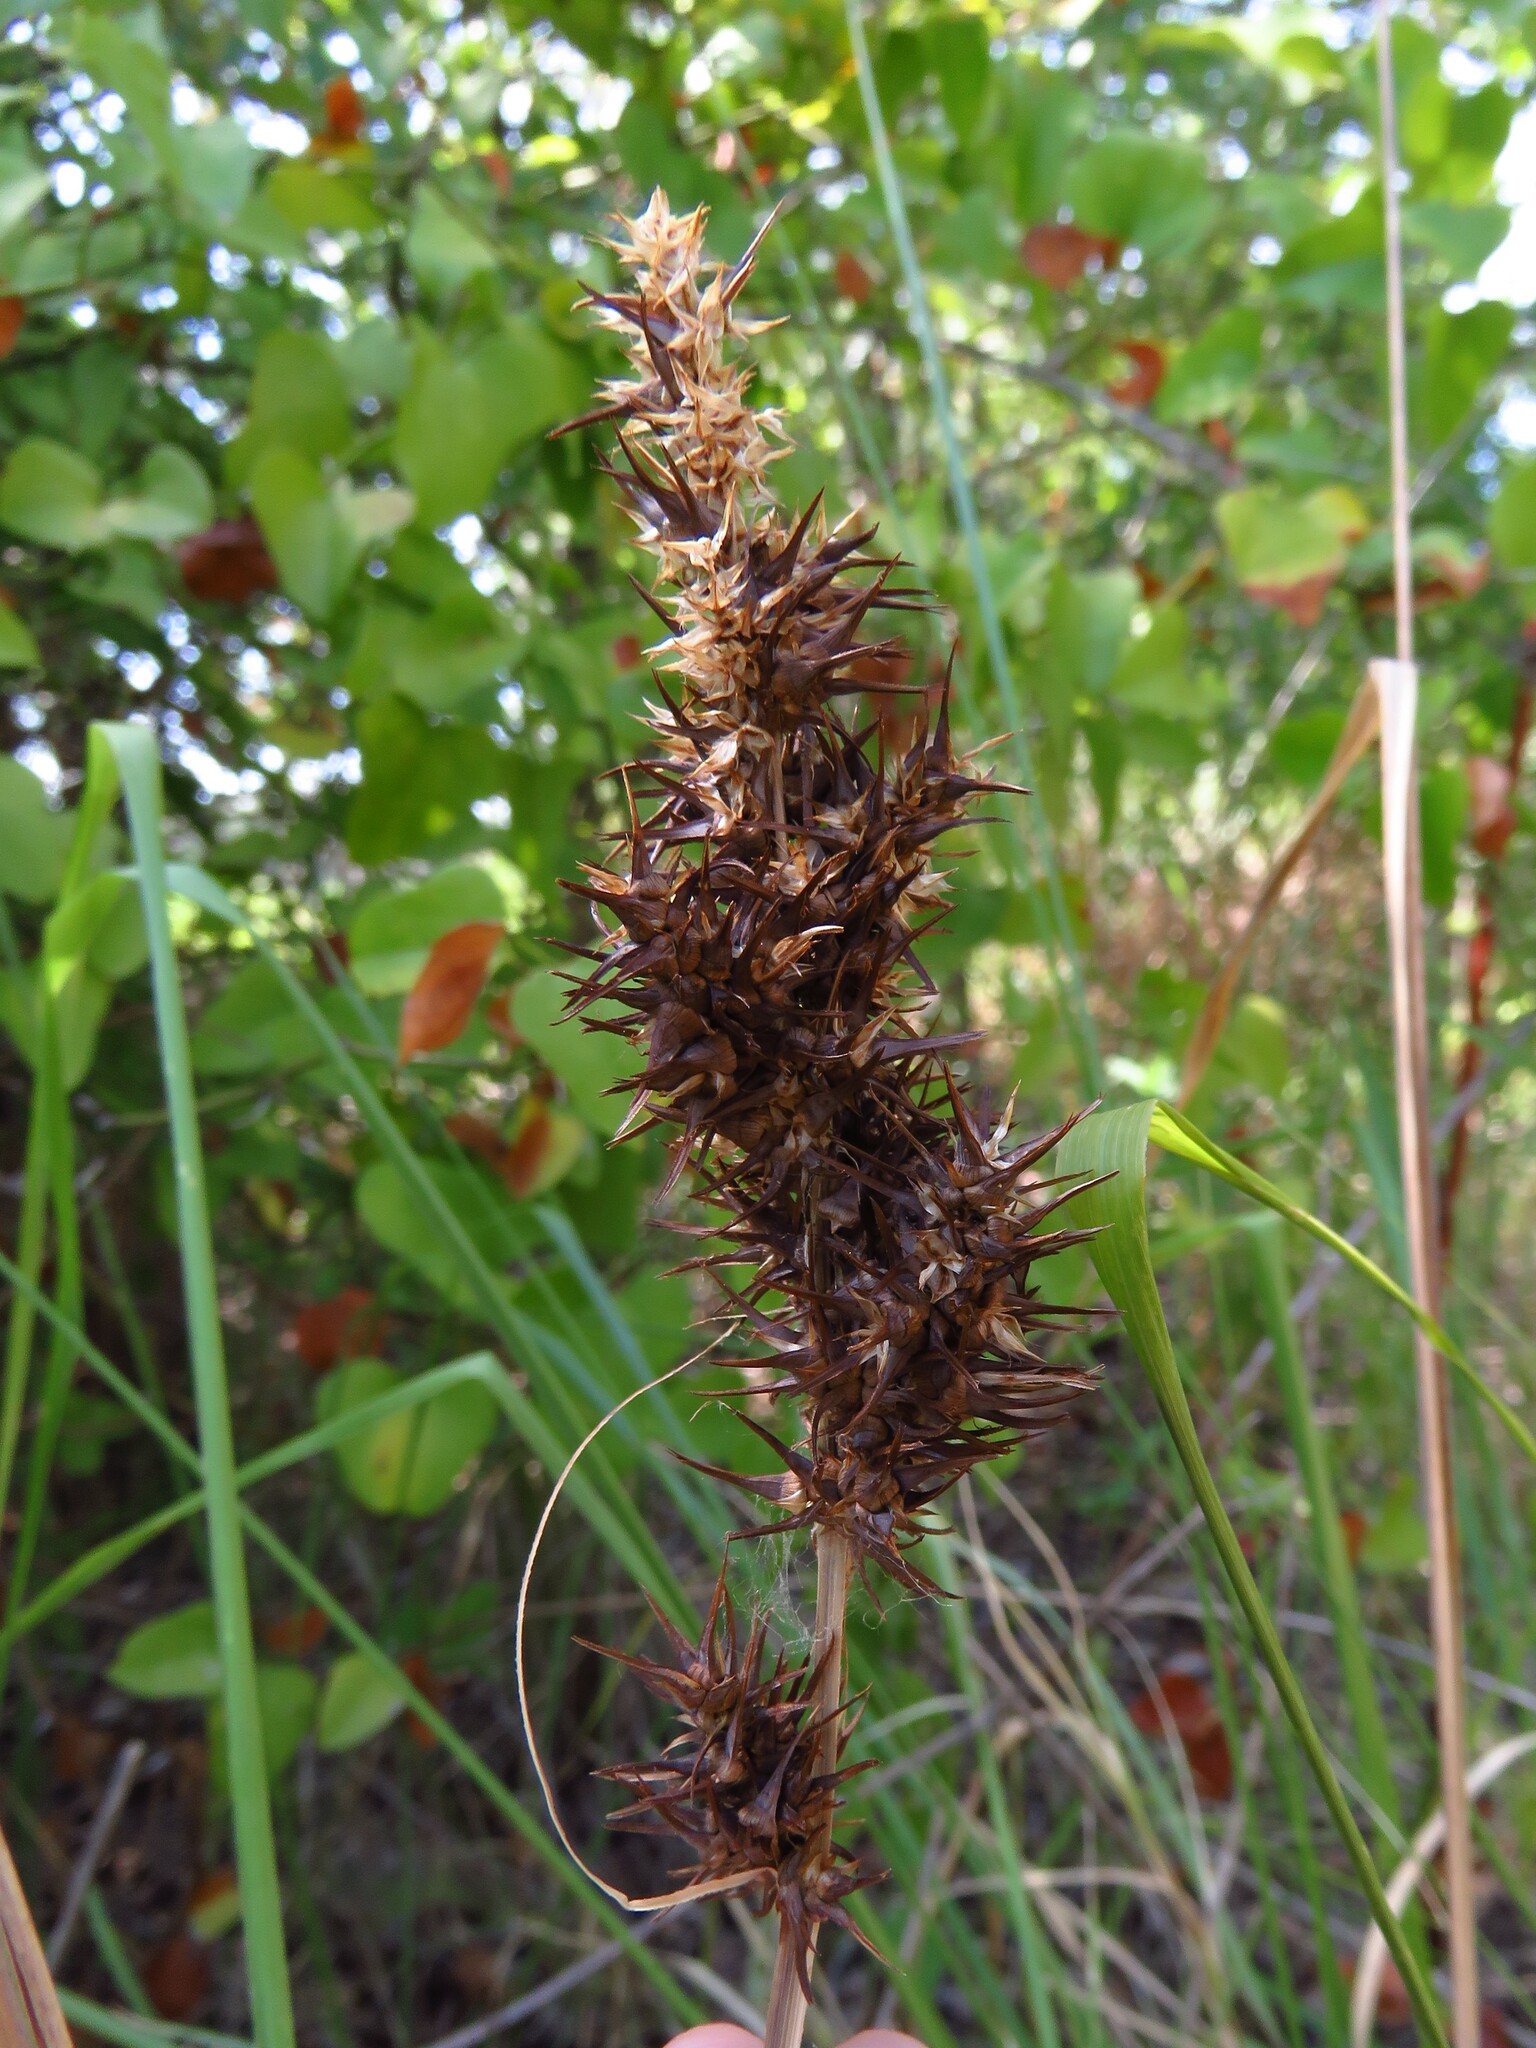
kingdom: Plantae
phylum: Tracheophyta
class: Liliopsida
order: Poales
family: Cyperaceae
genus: Carex
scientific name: Carex crus-corvi
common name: Crow-spur sedge
